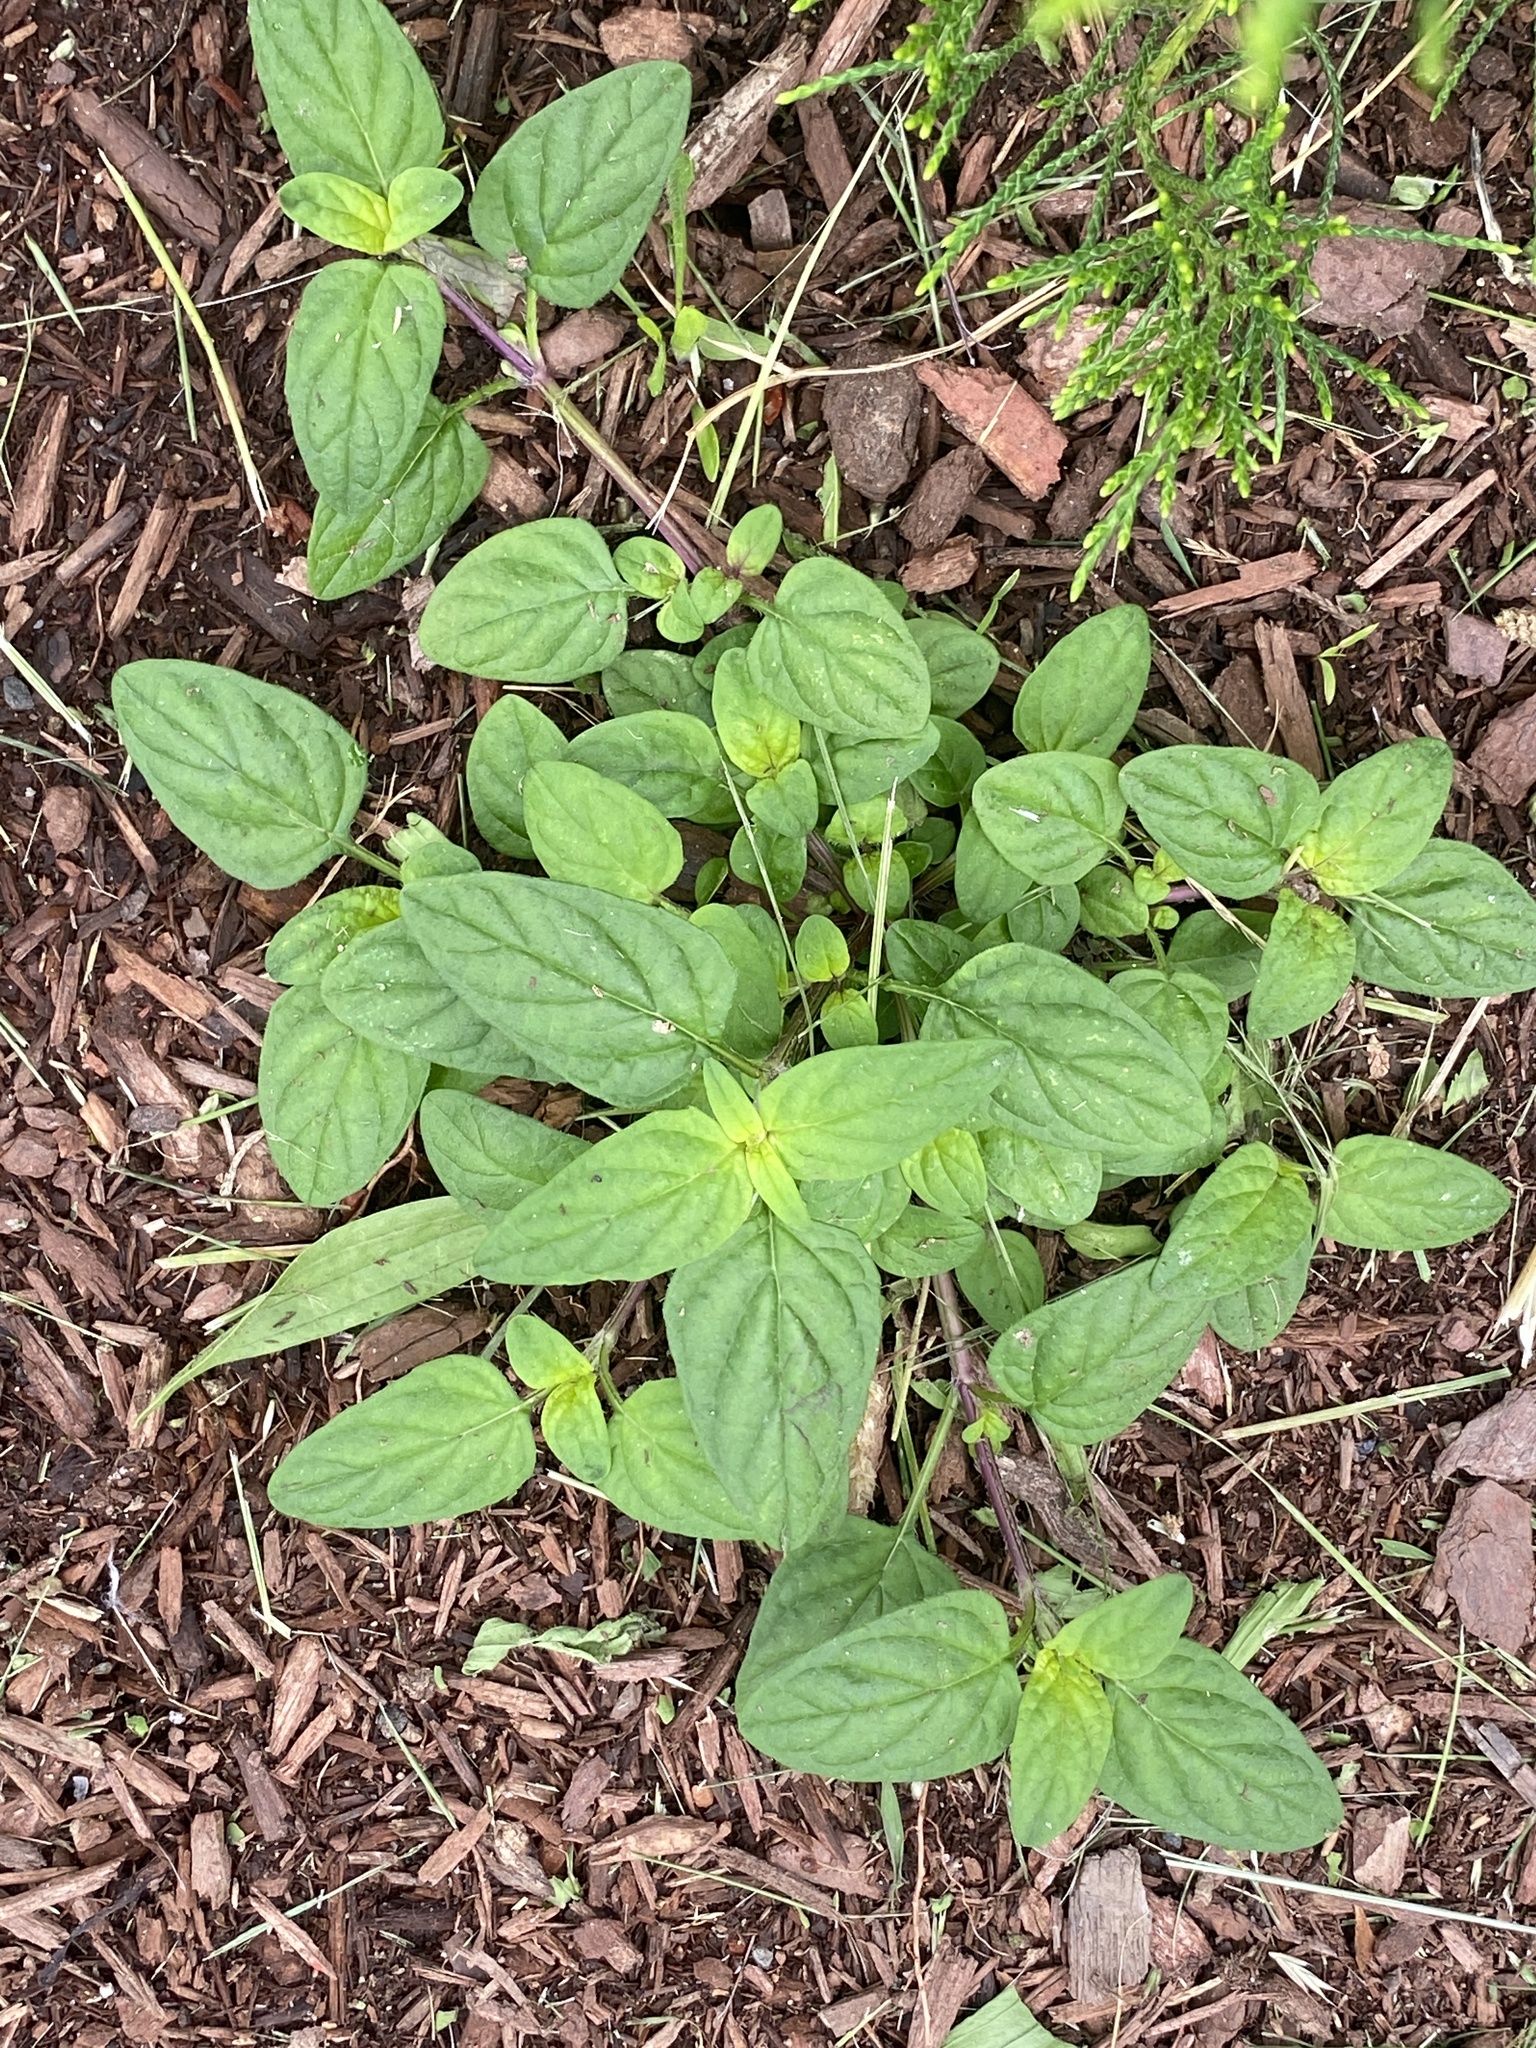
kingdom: Plantae
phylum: Tracheophyta
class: Magnoliopsida
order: Lamiales
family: Lamiaceae
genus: Prunella
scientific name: Prunella vulgaris
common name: Heal-all
